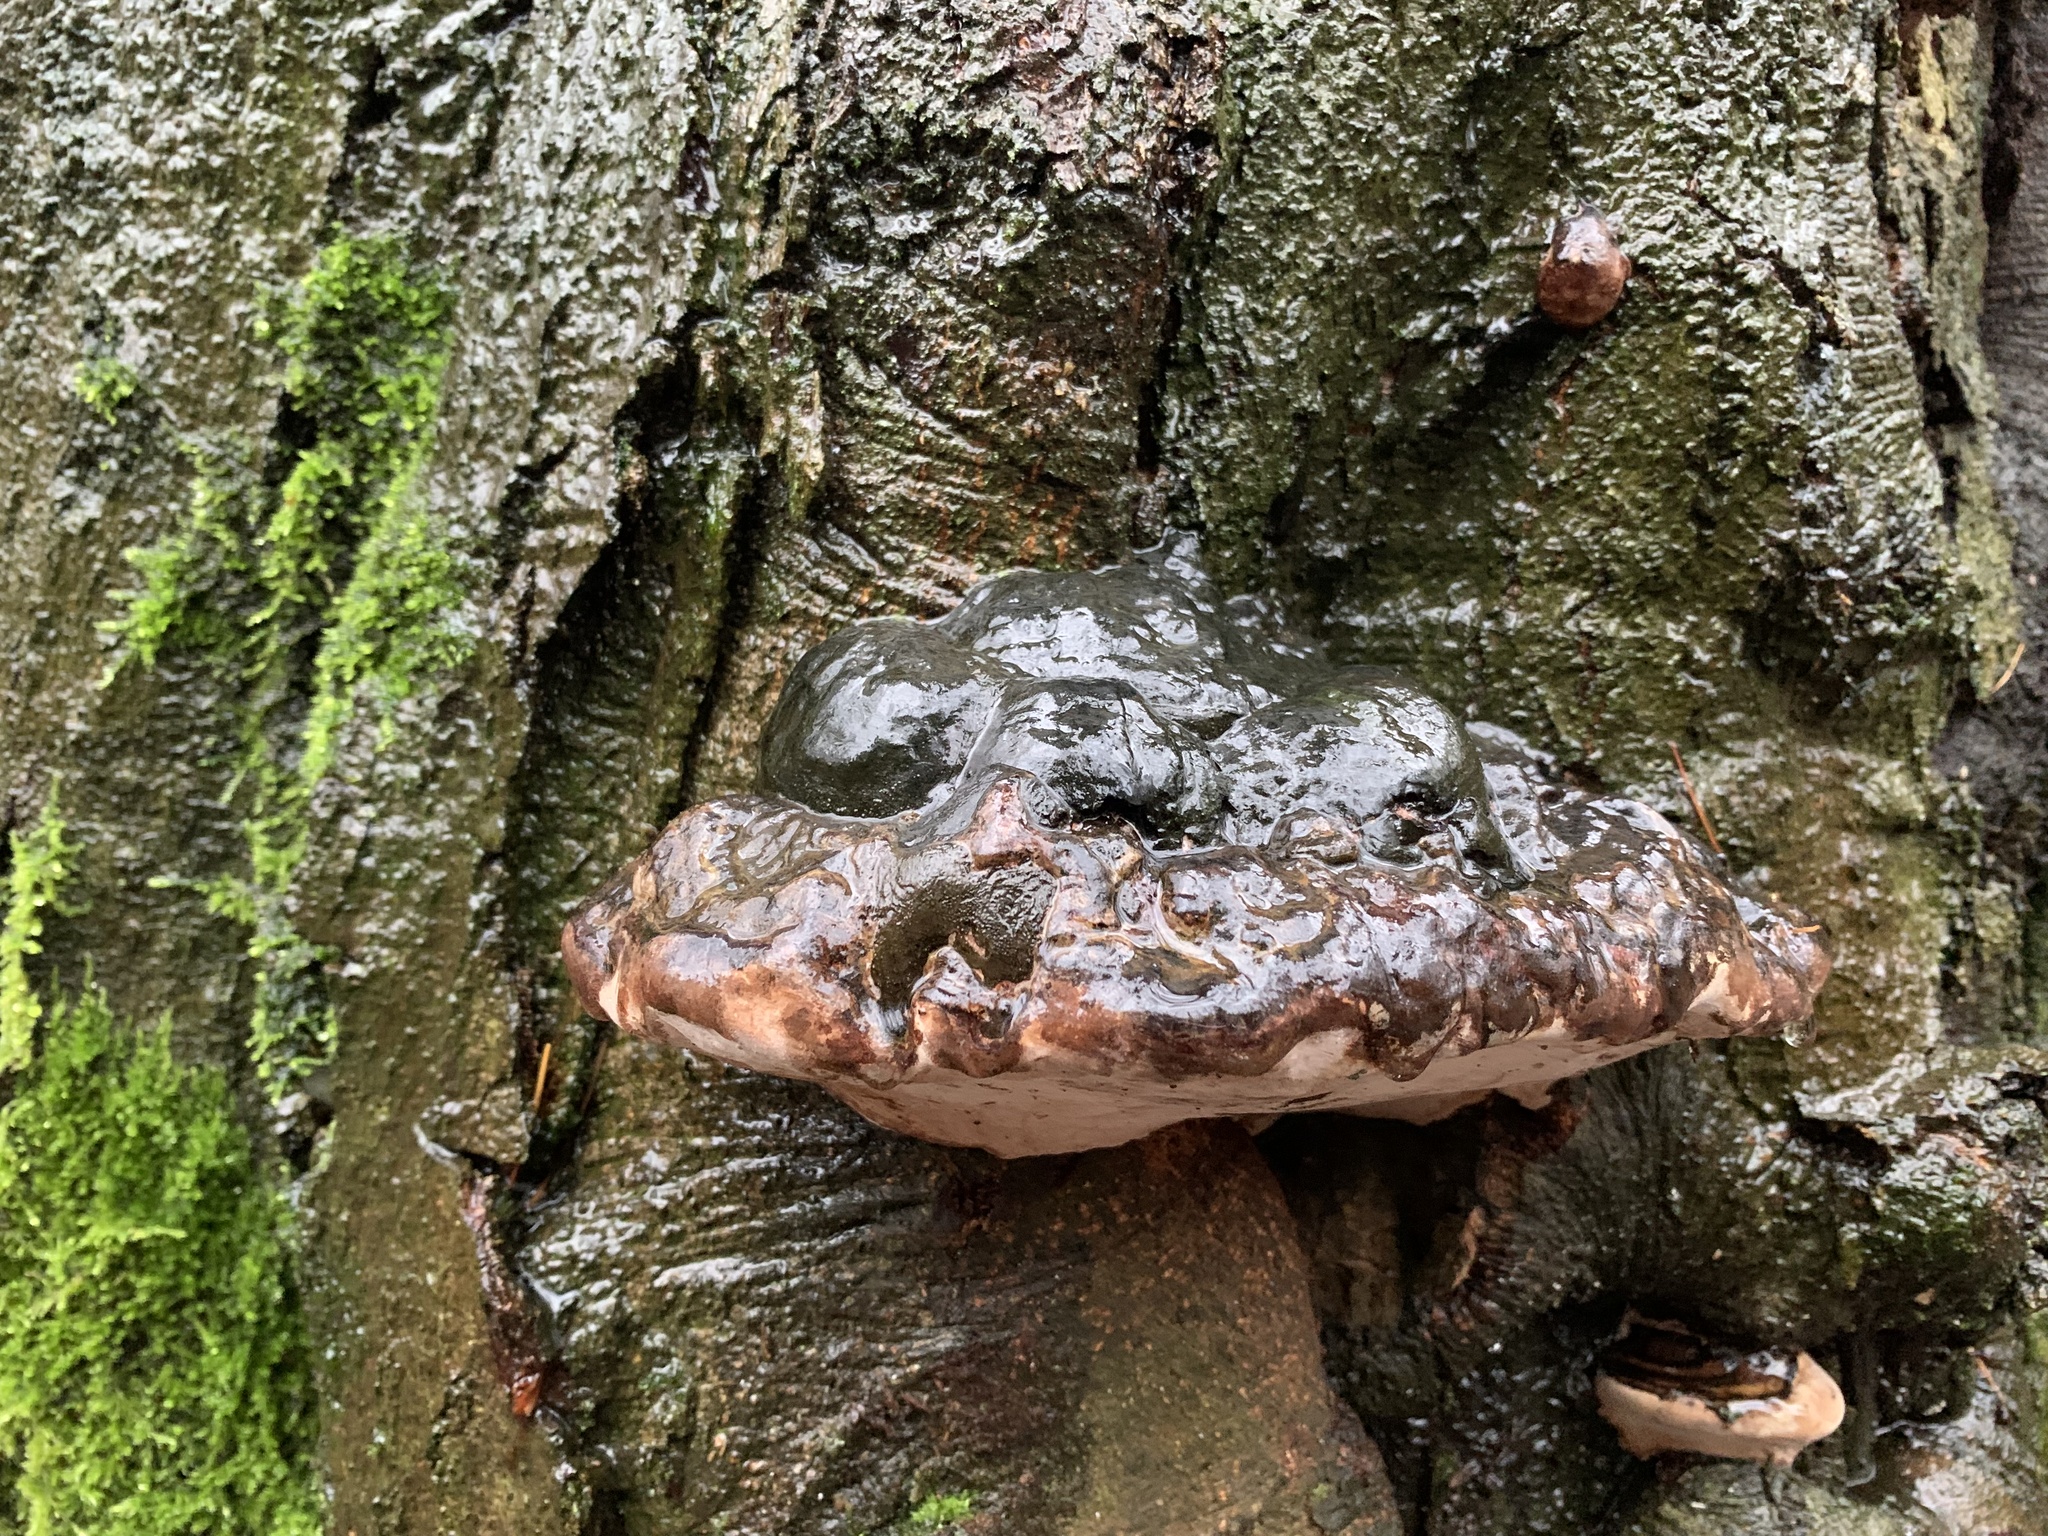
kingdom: Fungi
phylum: Basidiomycota
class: Agaricomycetes
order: Polyporales
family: Polyporaceae
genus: Ganoderma
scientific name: Ganoderma applanatum
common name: Artist's bracket
